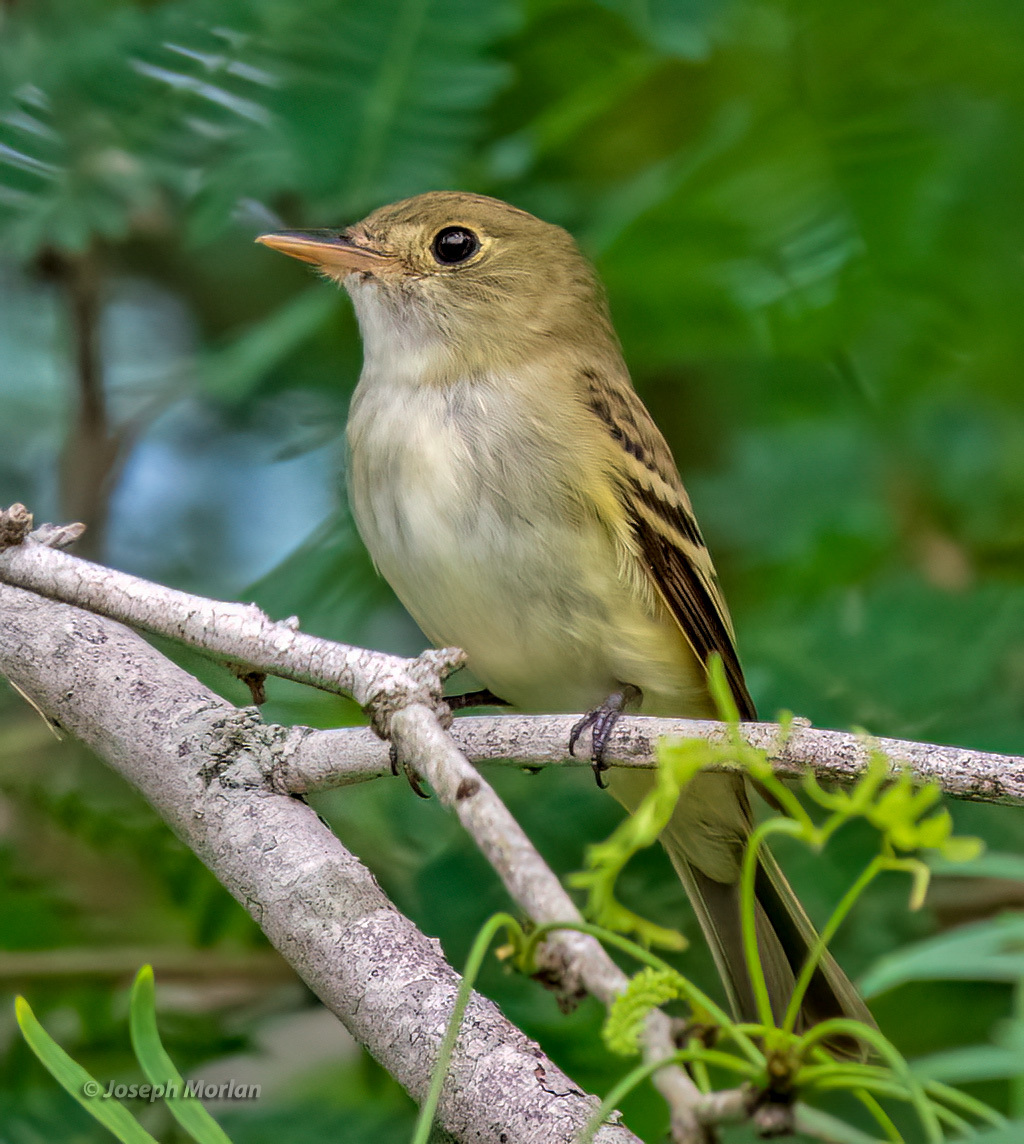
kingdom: Animalia
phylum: Chordata
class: Aves
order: Passeriformes
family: Tyrannidae
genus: Empidonax
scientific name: Empidonax virescens
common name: Acadian flycatcher
